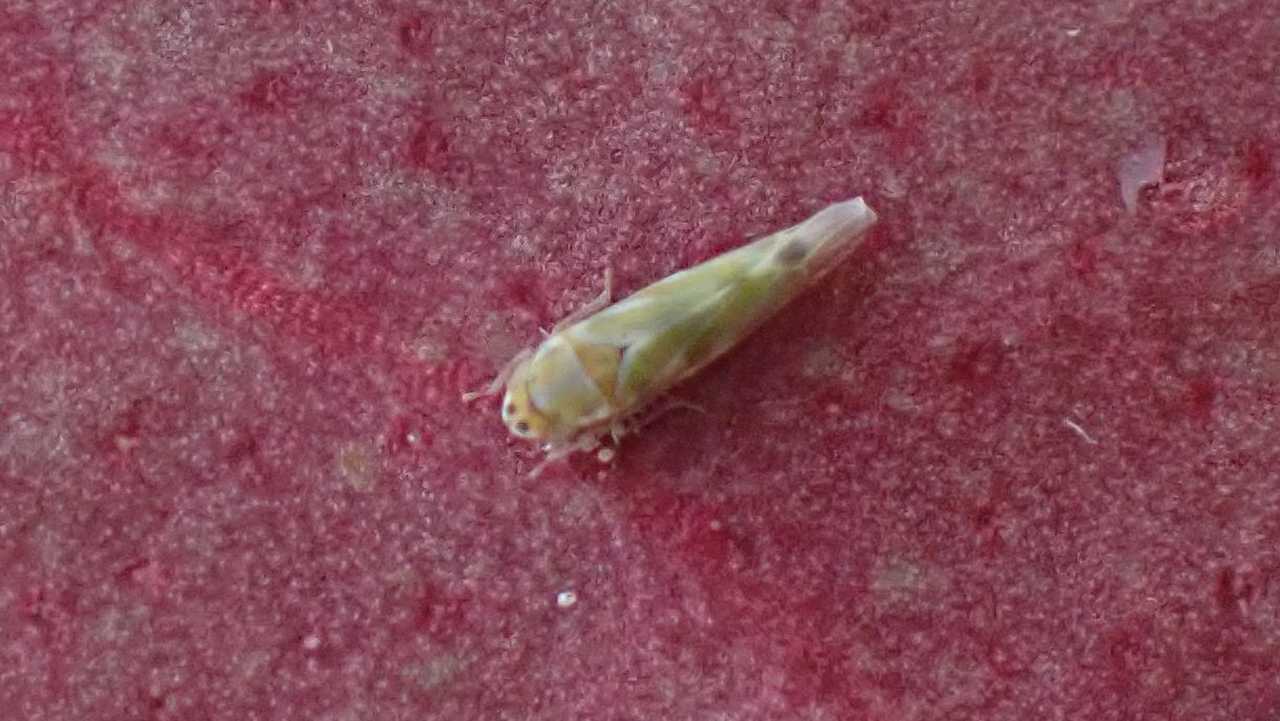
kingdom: Animalia
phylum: Arthropoda
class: Insecta
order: Hemiptera
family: Cicadellidae
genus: Frutioidia
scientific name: Frutioidia bisignata
